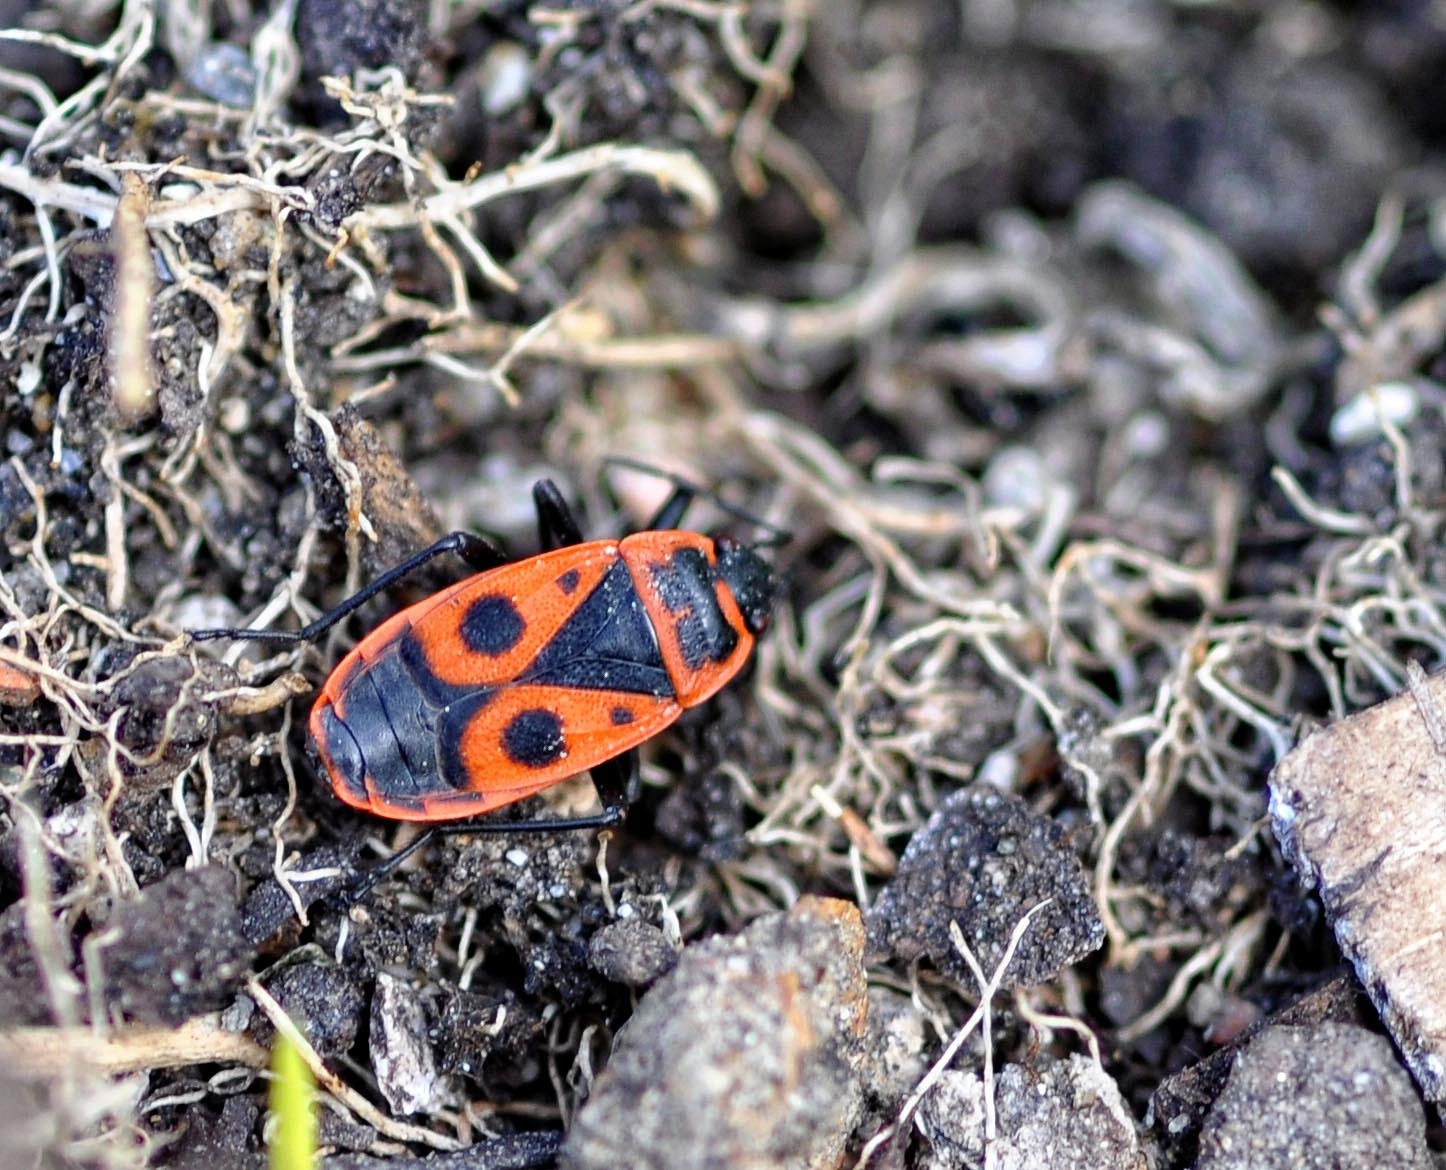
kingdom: Animalia
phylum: Arthropoda
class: Insecta
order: Hemiptera
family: Pyrrhocoridae
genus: Pyrrhocoris
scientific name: Pyrrhocoris apterus
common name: Firebug
